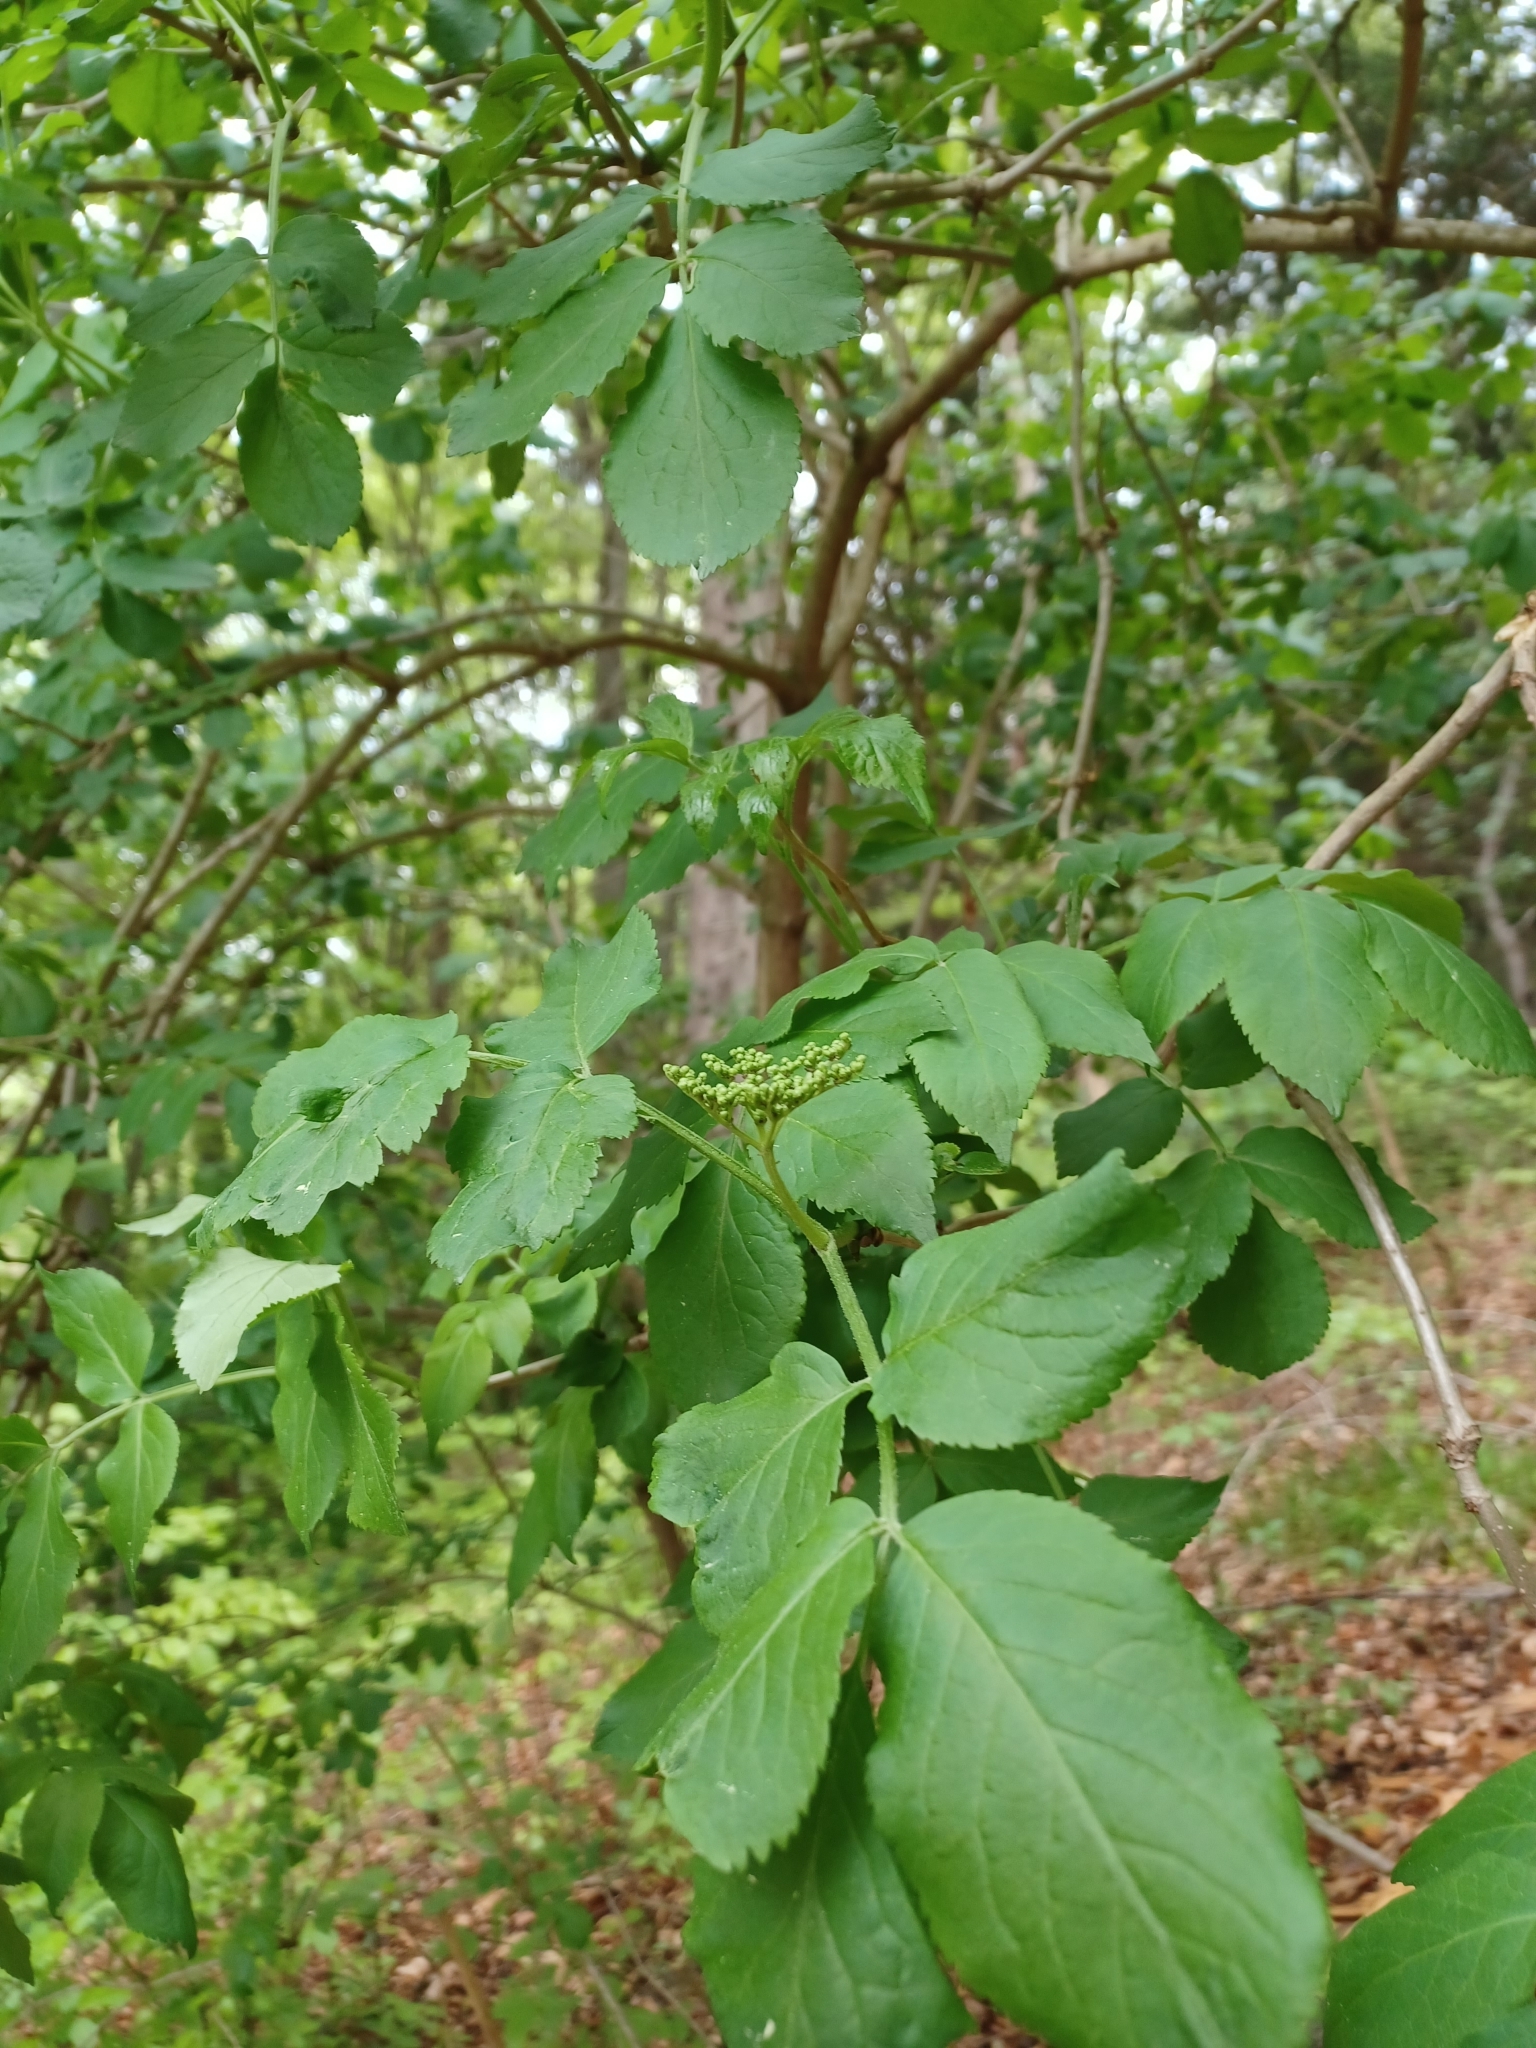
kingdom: Plantae
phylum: Tracheophyta
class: Magnoliopsida
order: Dipsacales
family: Viburnaceae
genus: Sambucus
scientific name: Sambucus nigra
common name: Elder
